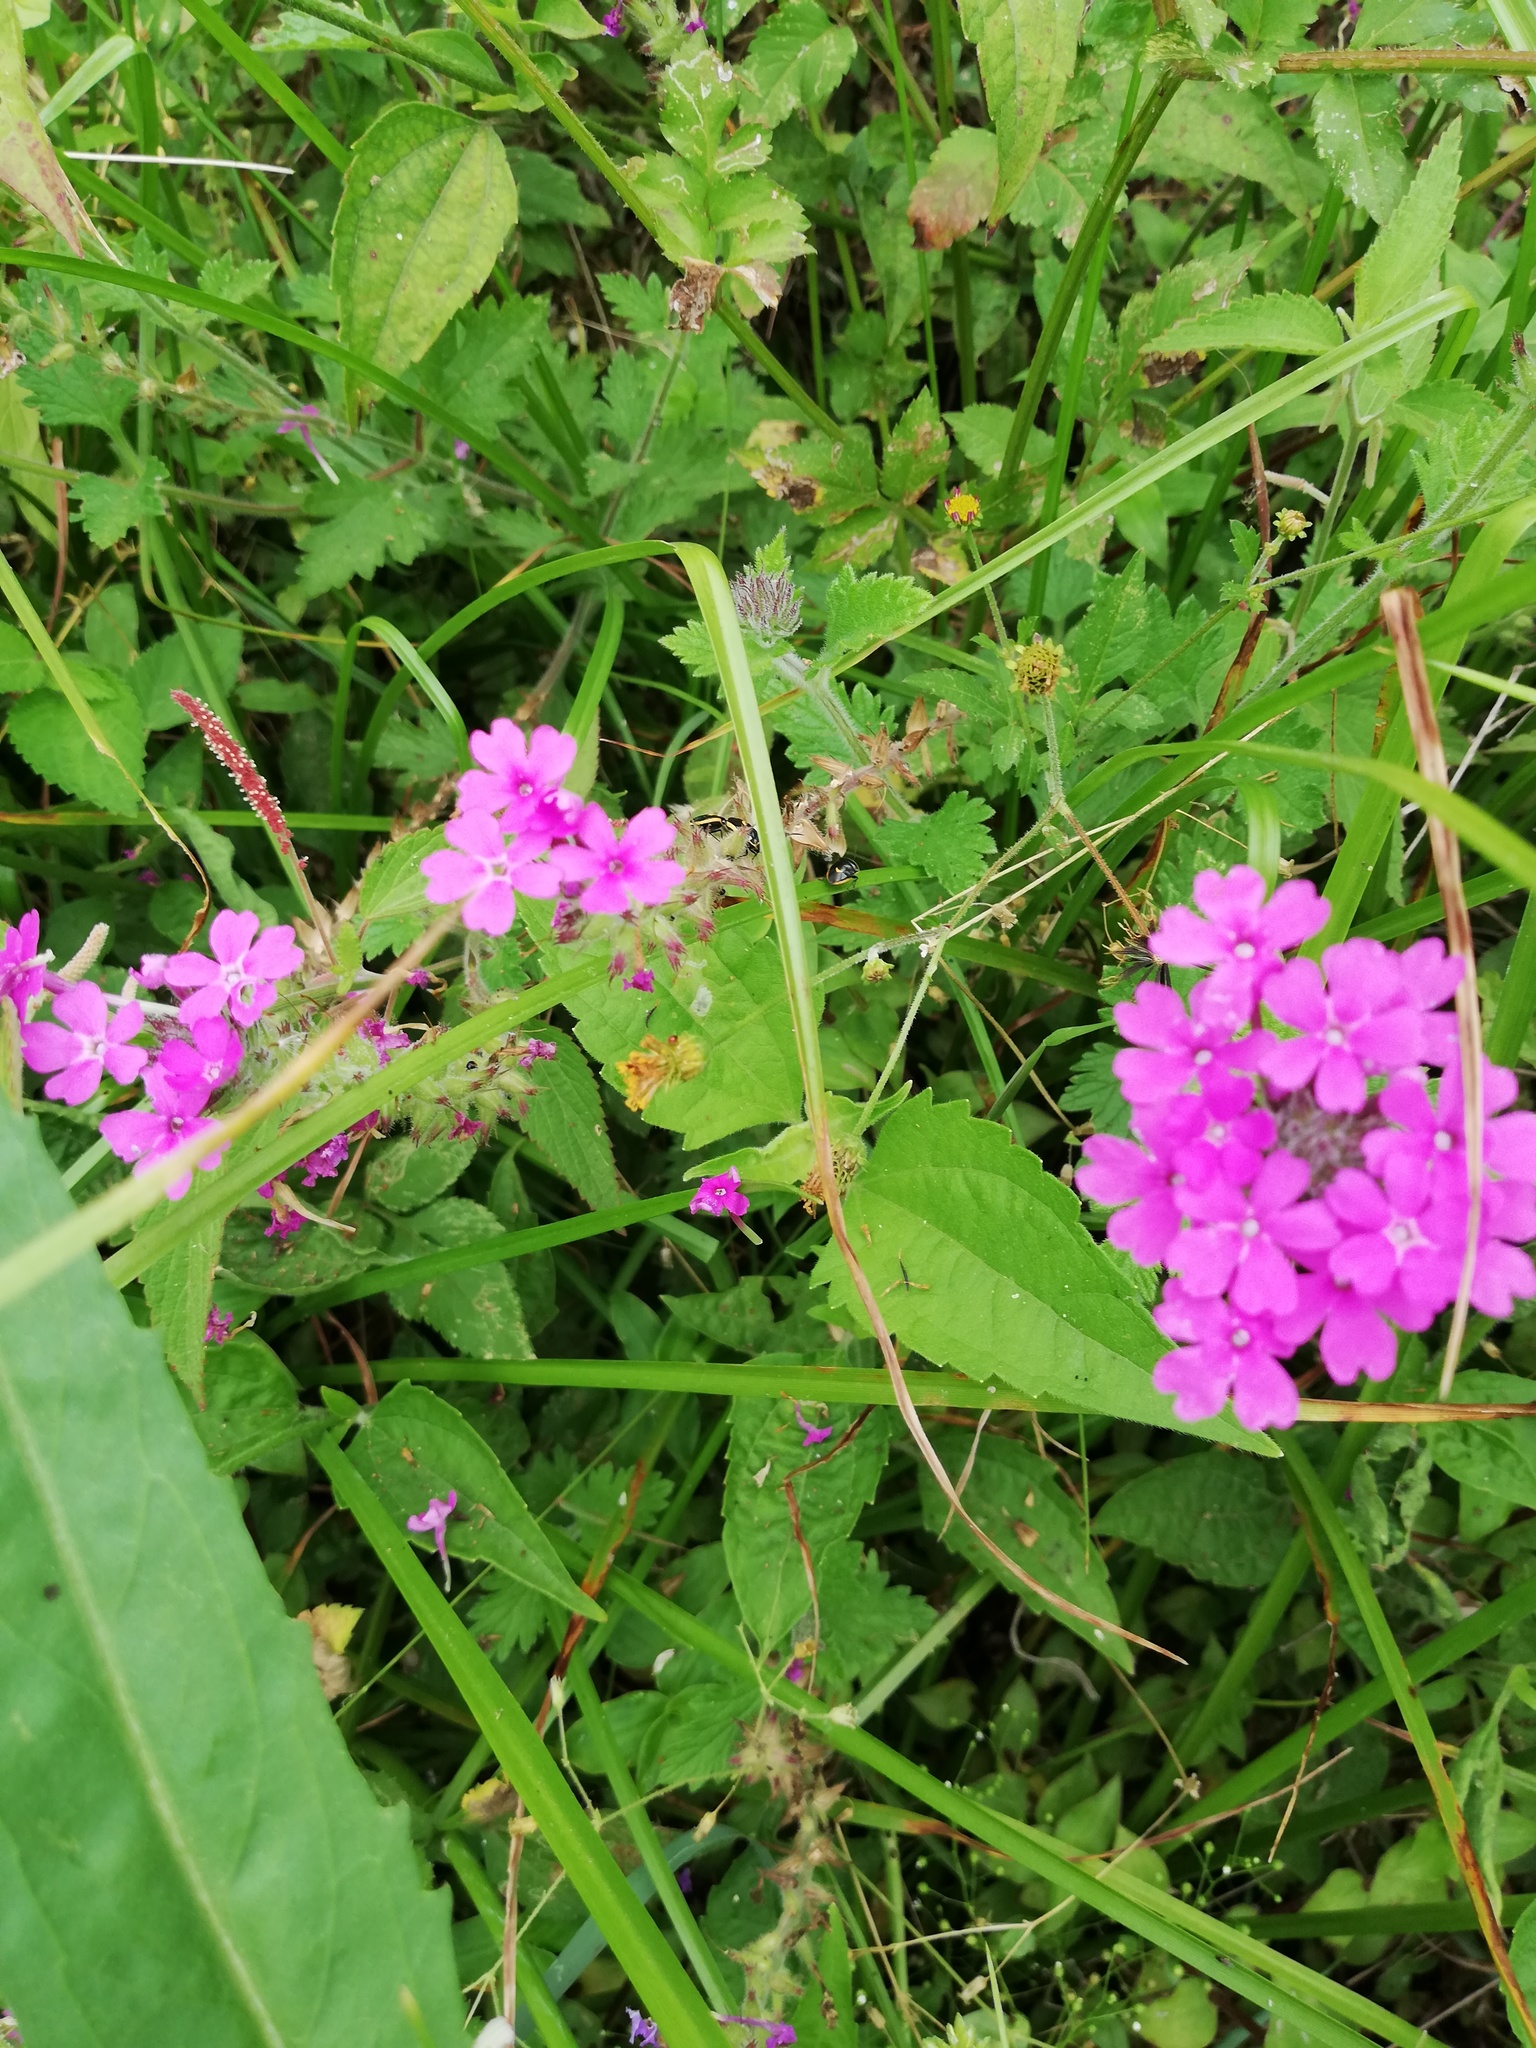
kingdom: Plantae
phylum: Tracheophyta
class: Magnoliopsida
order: Lamiales
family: Verbenaceae
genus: Verbena
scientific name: Verbena canadensis
